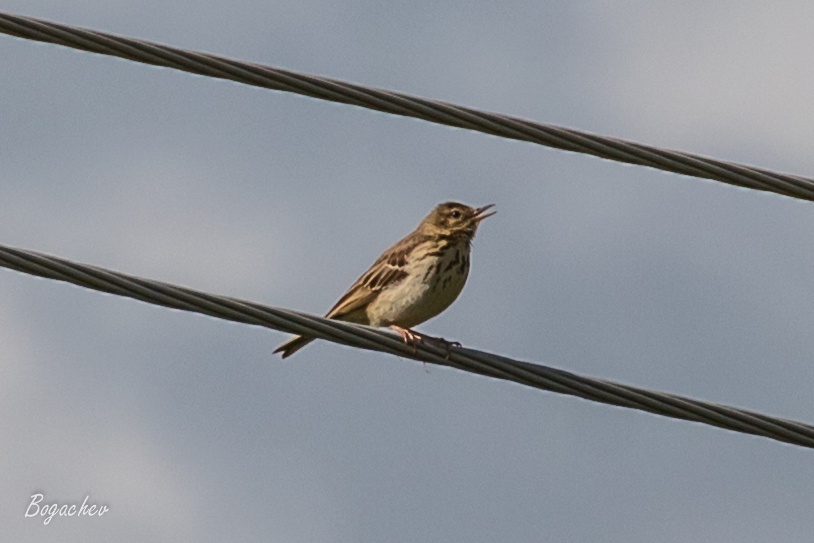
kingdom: Animalia
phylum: Chordata
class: Aves
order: Passeriformes
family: Motacillidae
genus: Anthus
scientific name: Anthus trivialis
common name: Tree pipit
